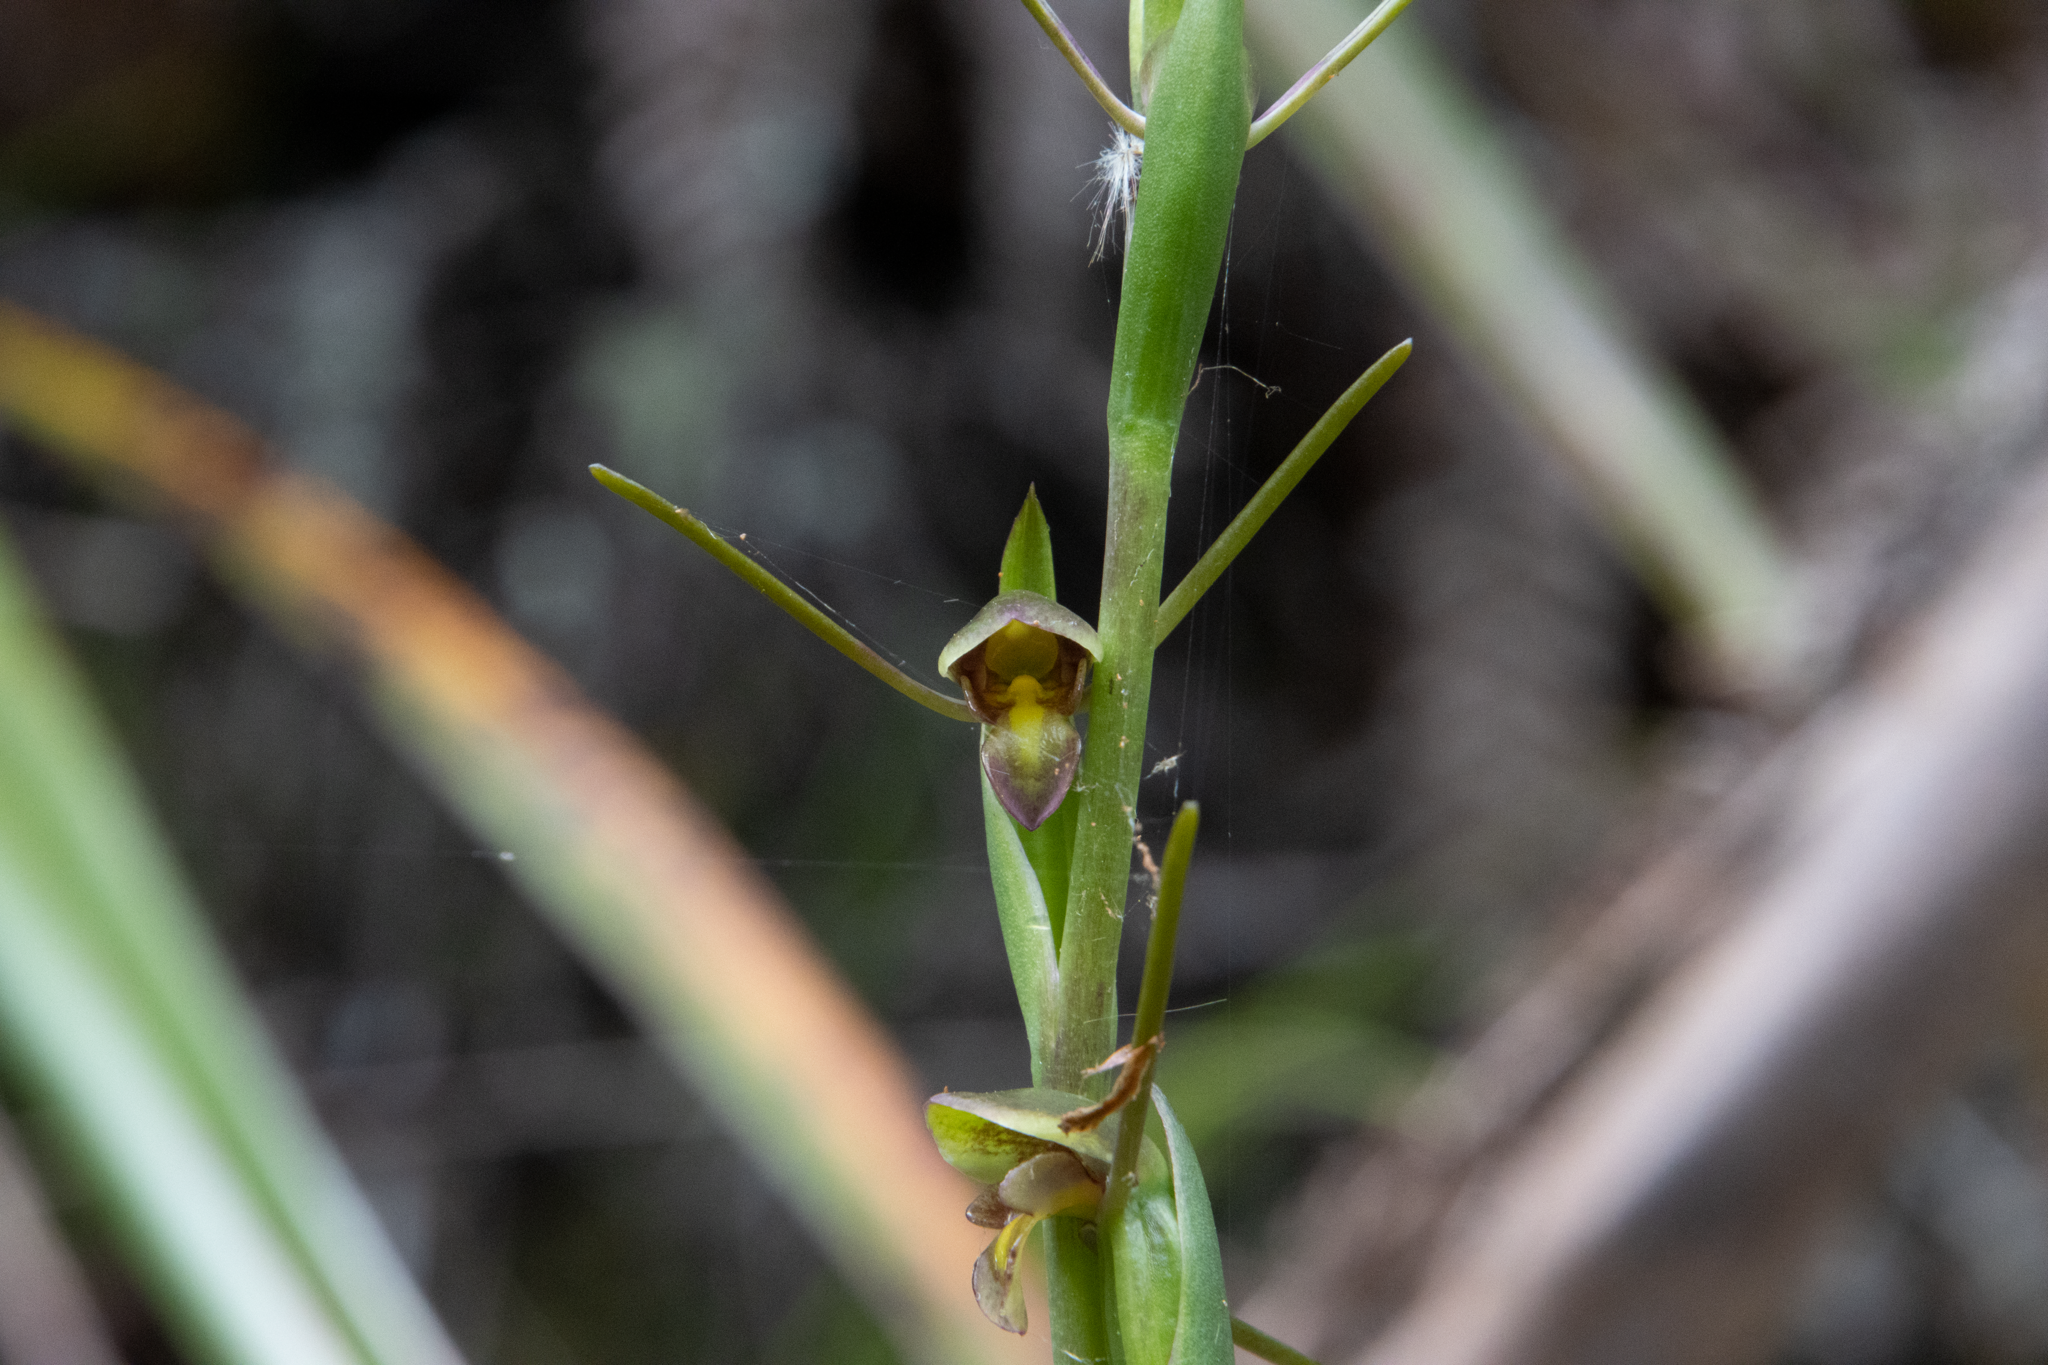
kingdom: Plantae
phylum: Tracheophyta
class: Liliopsida
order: Asparagales
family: Orchidaceae
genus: Orthoceras
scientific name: Orthoceras novae-zeelandiae
